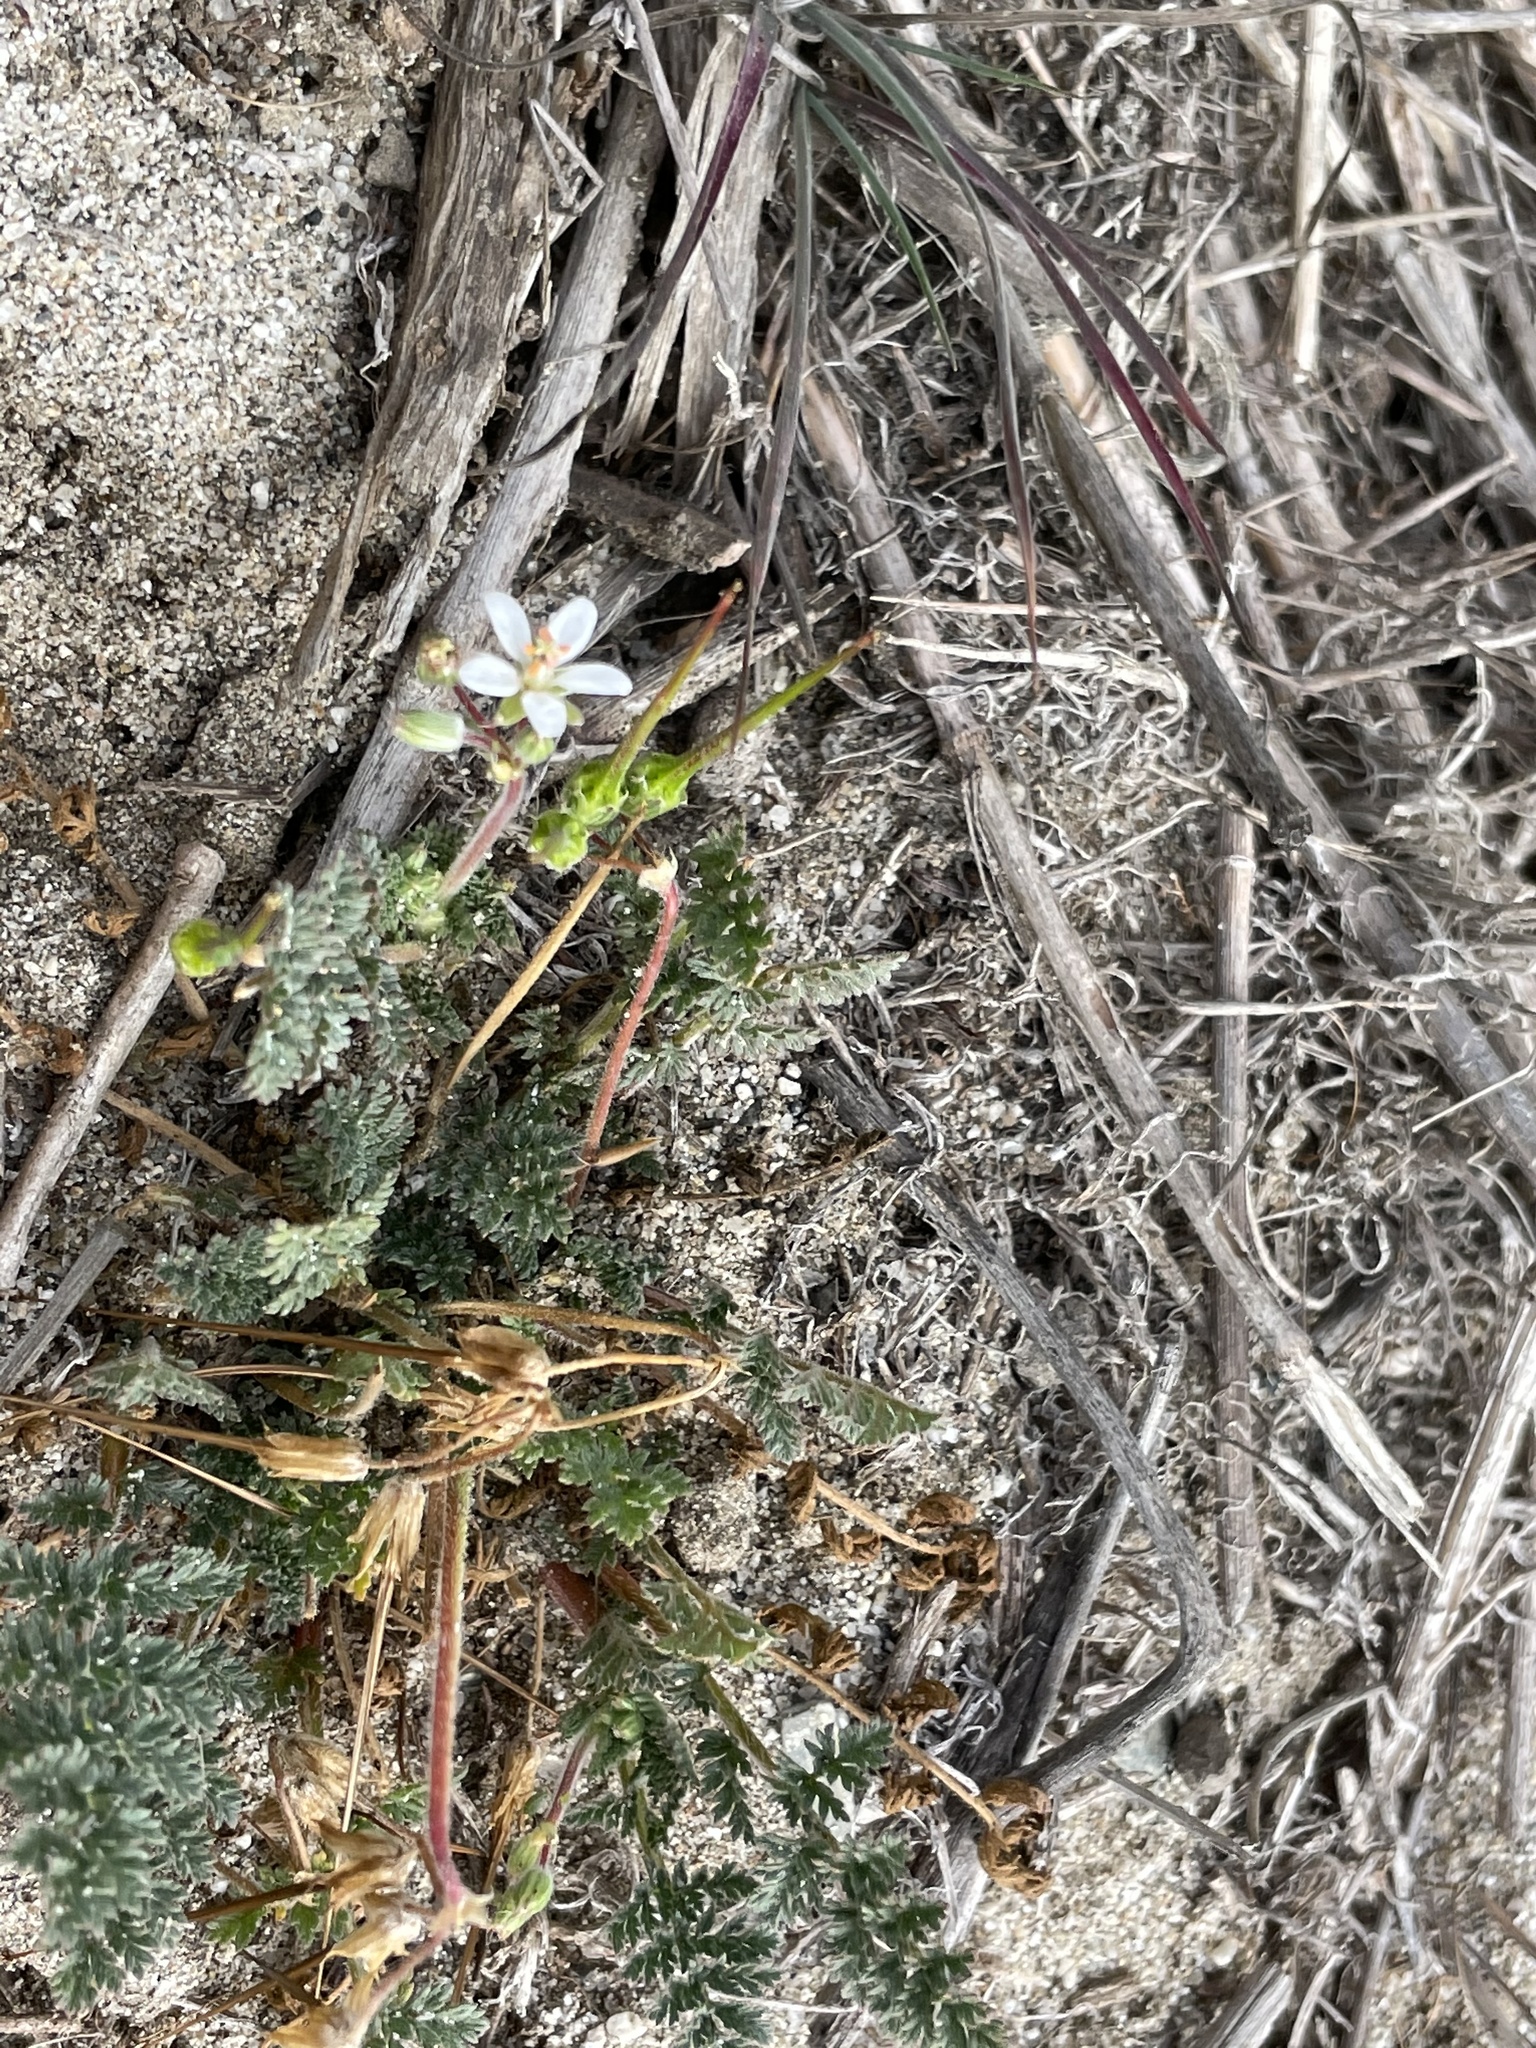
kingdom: Plantae
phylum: Tracheophyta
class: Magnoliopsida
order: Geraniales
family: Geraniaceae
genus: Erodium
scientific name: Erodium cicutarium
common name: Common stork's-bill
